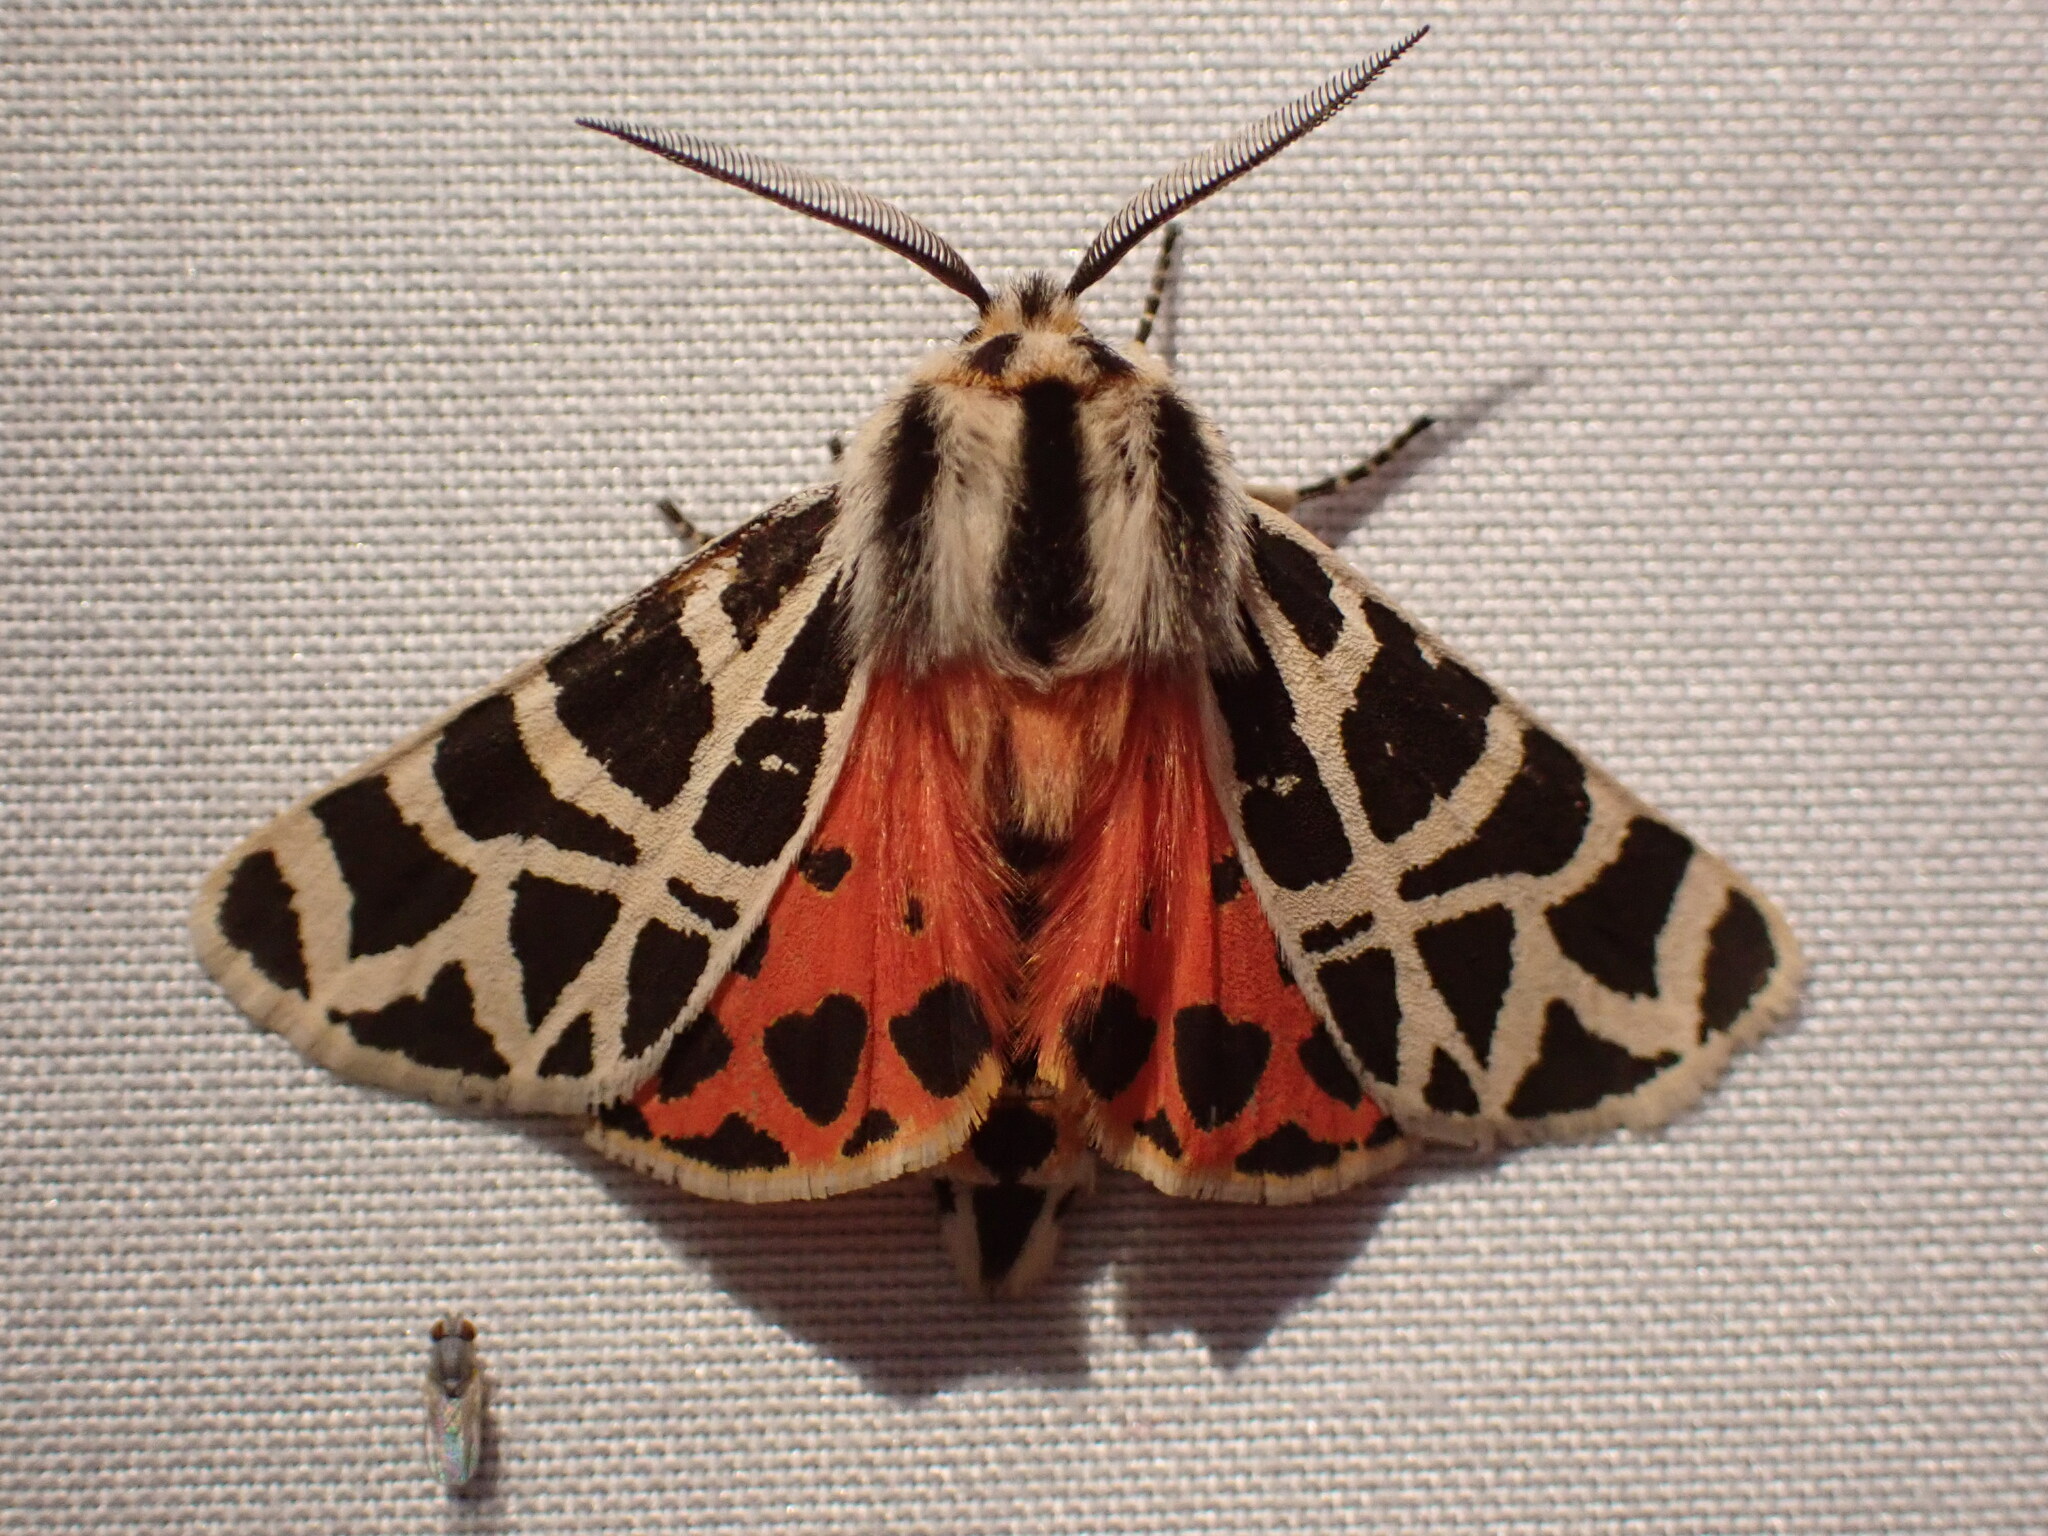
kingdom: Animalia
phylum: Arthropoda
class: Insecta
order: Lepidoptera
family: Erebidae
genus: Apantesis
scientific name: Apantesis
